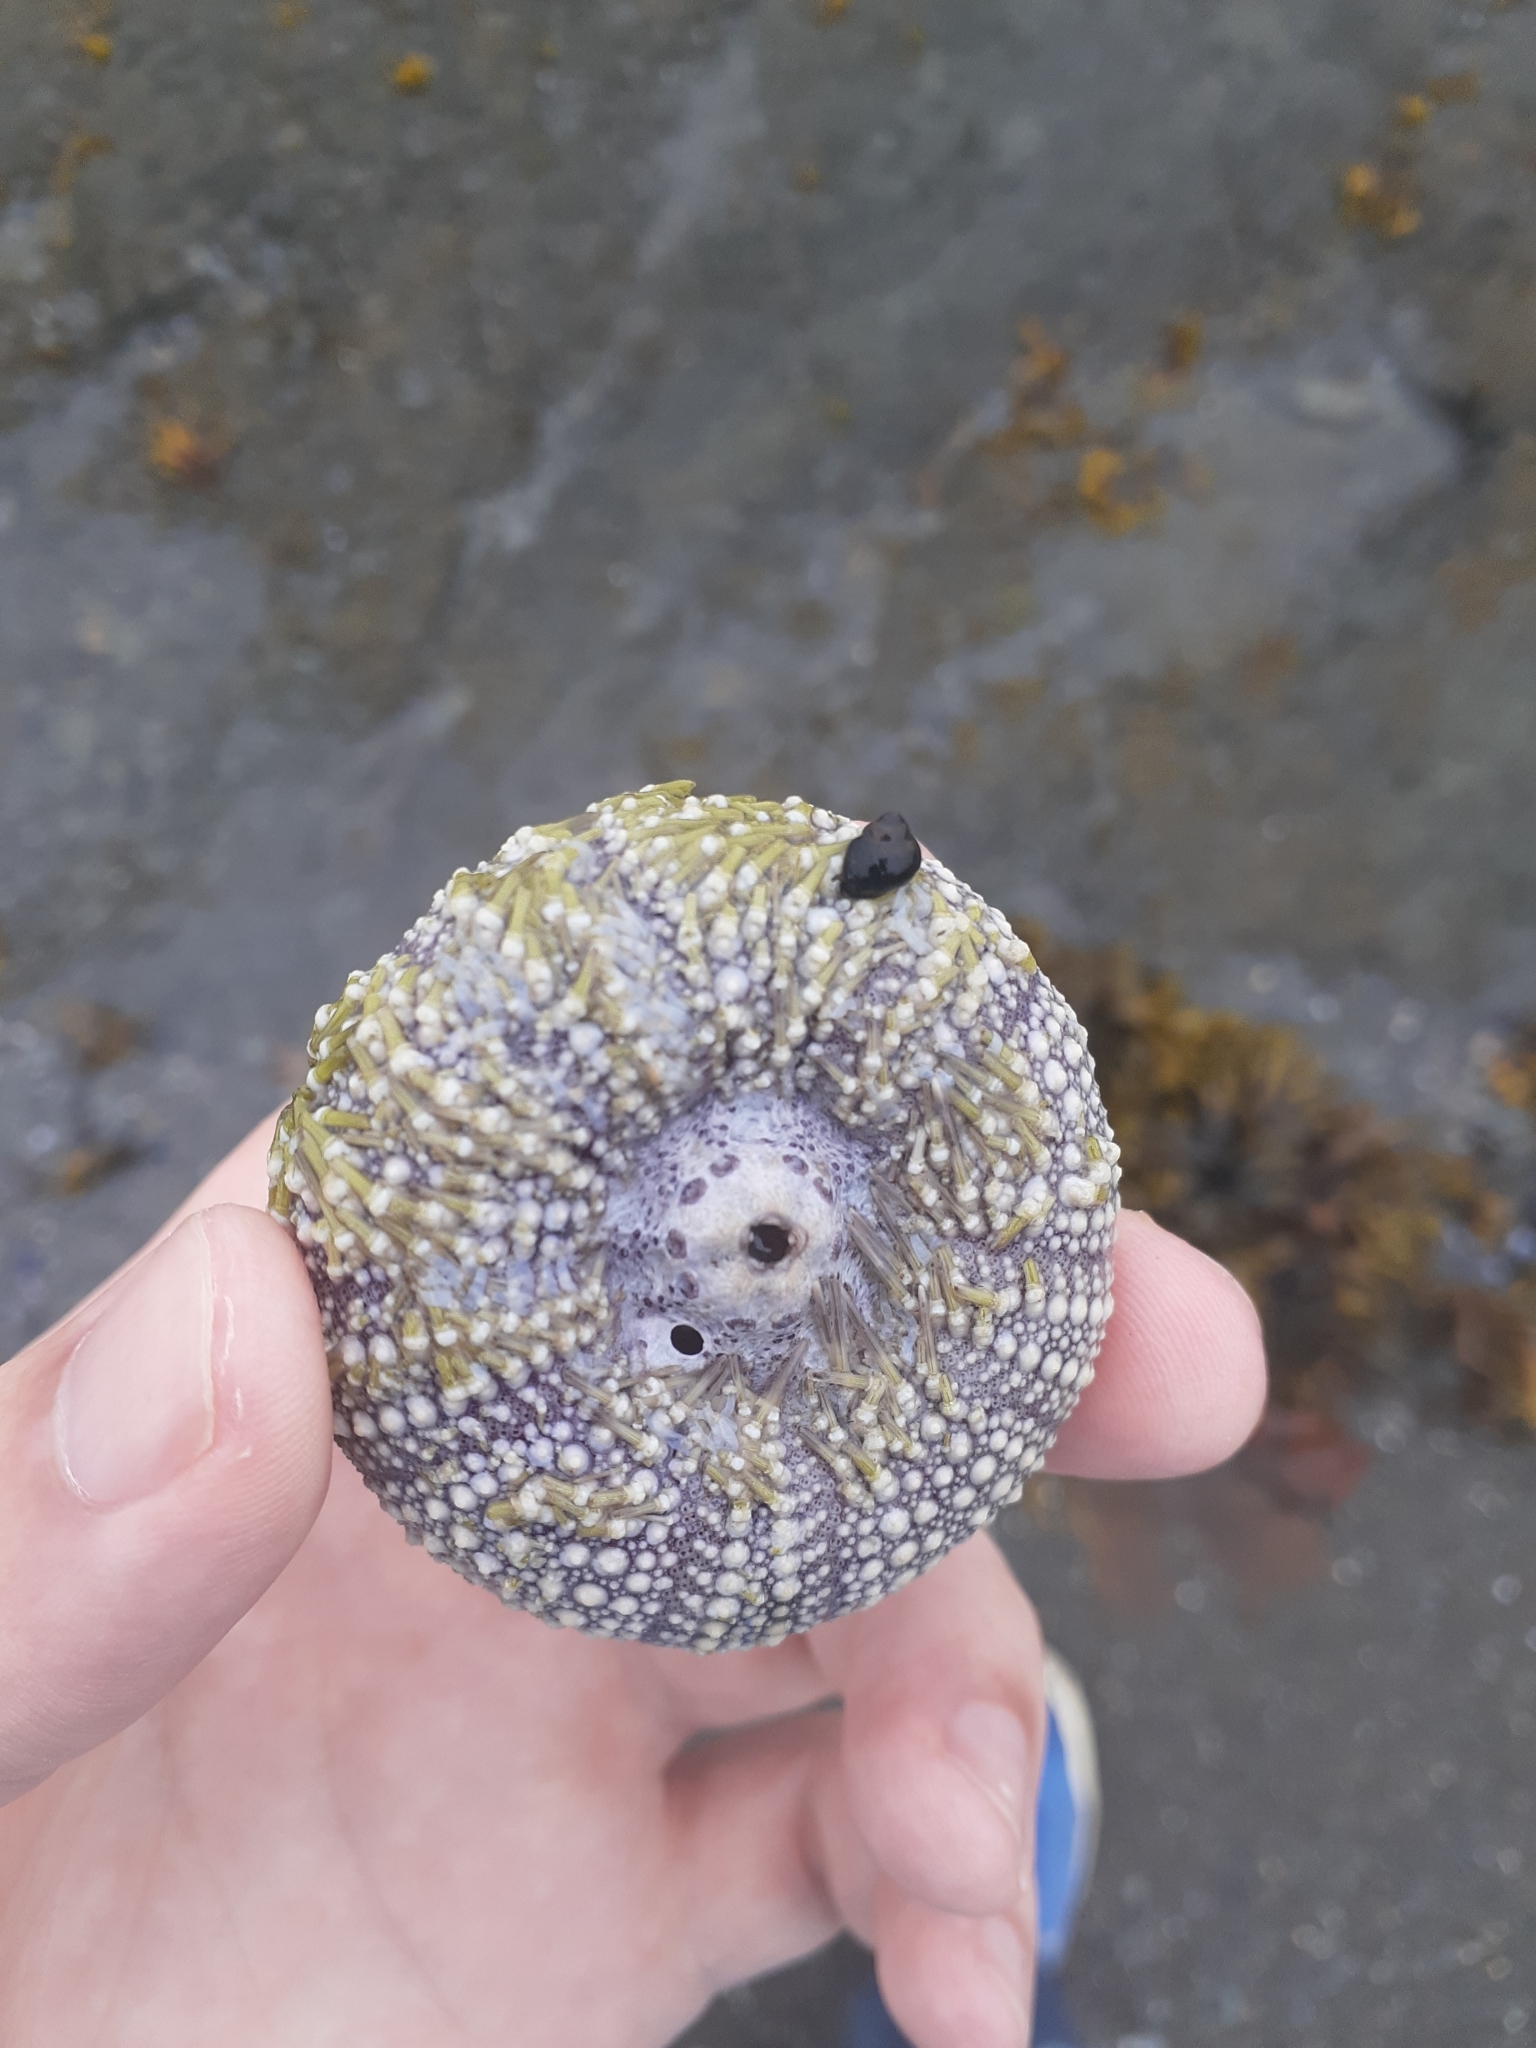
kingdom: Animalia
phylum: Echinodermata
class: Echinoidea
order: Camarodonta
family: Strongylocentrotidae
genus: Strongylocentrotus
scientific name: Strongylocentrotus droebachiensis
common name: Northern sea urchin
